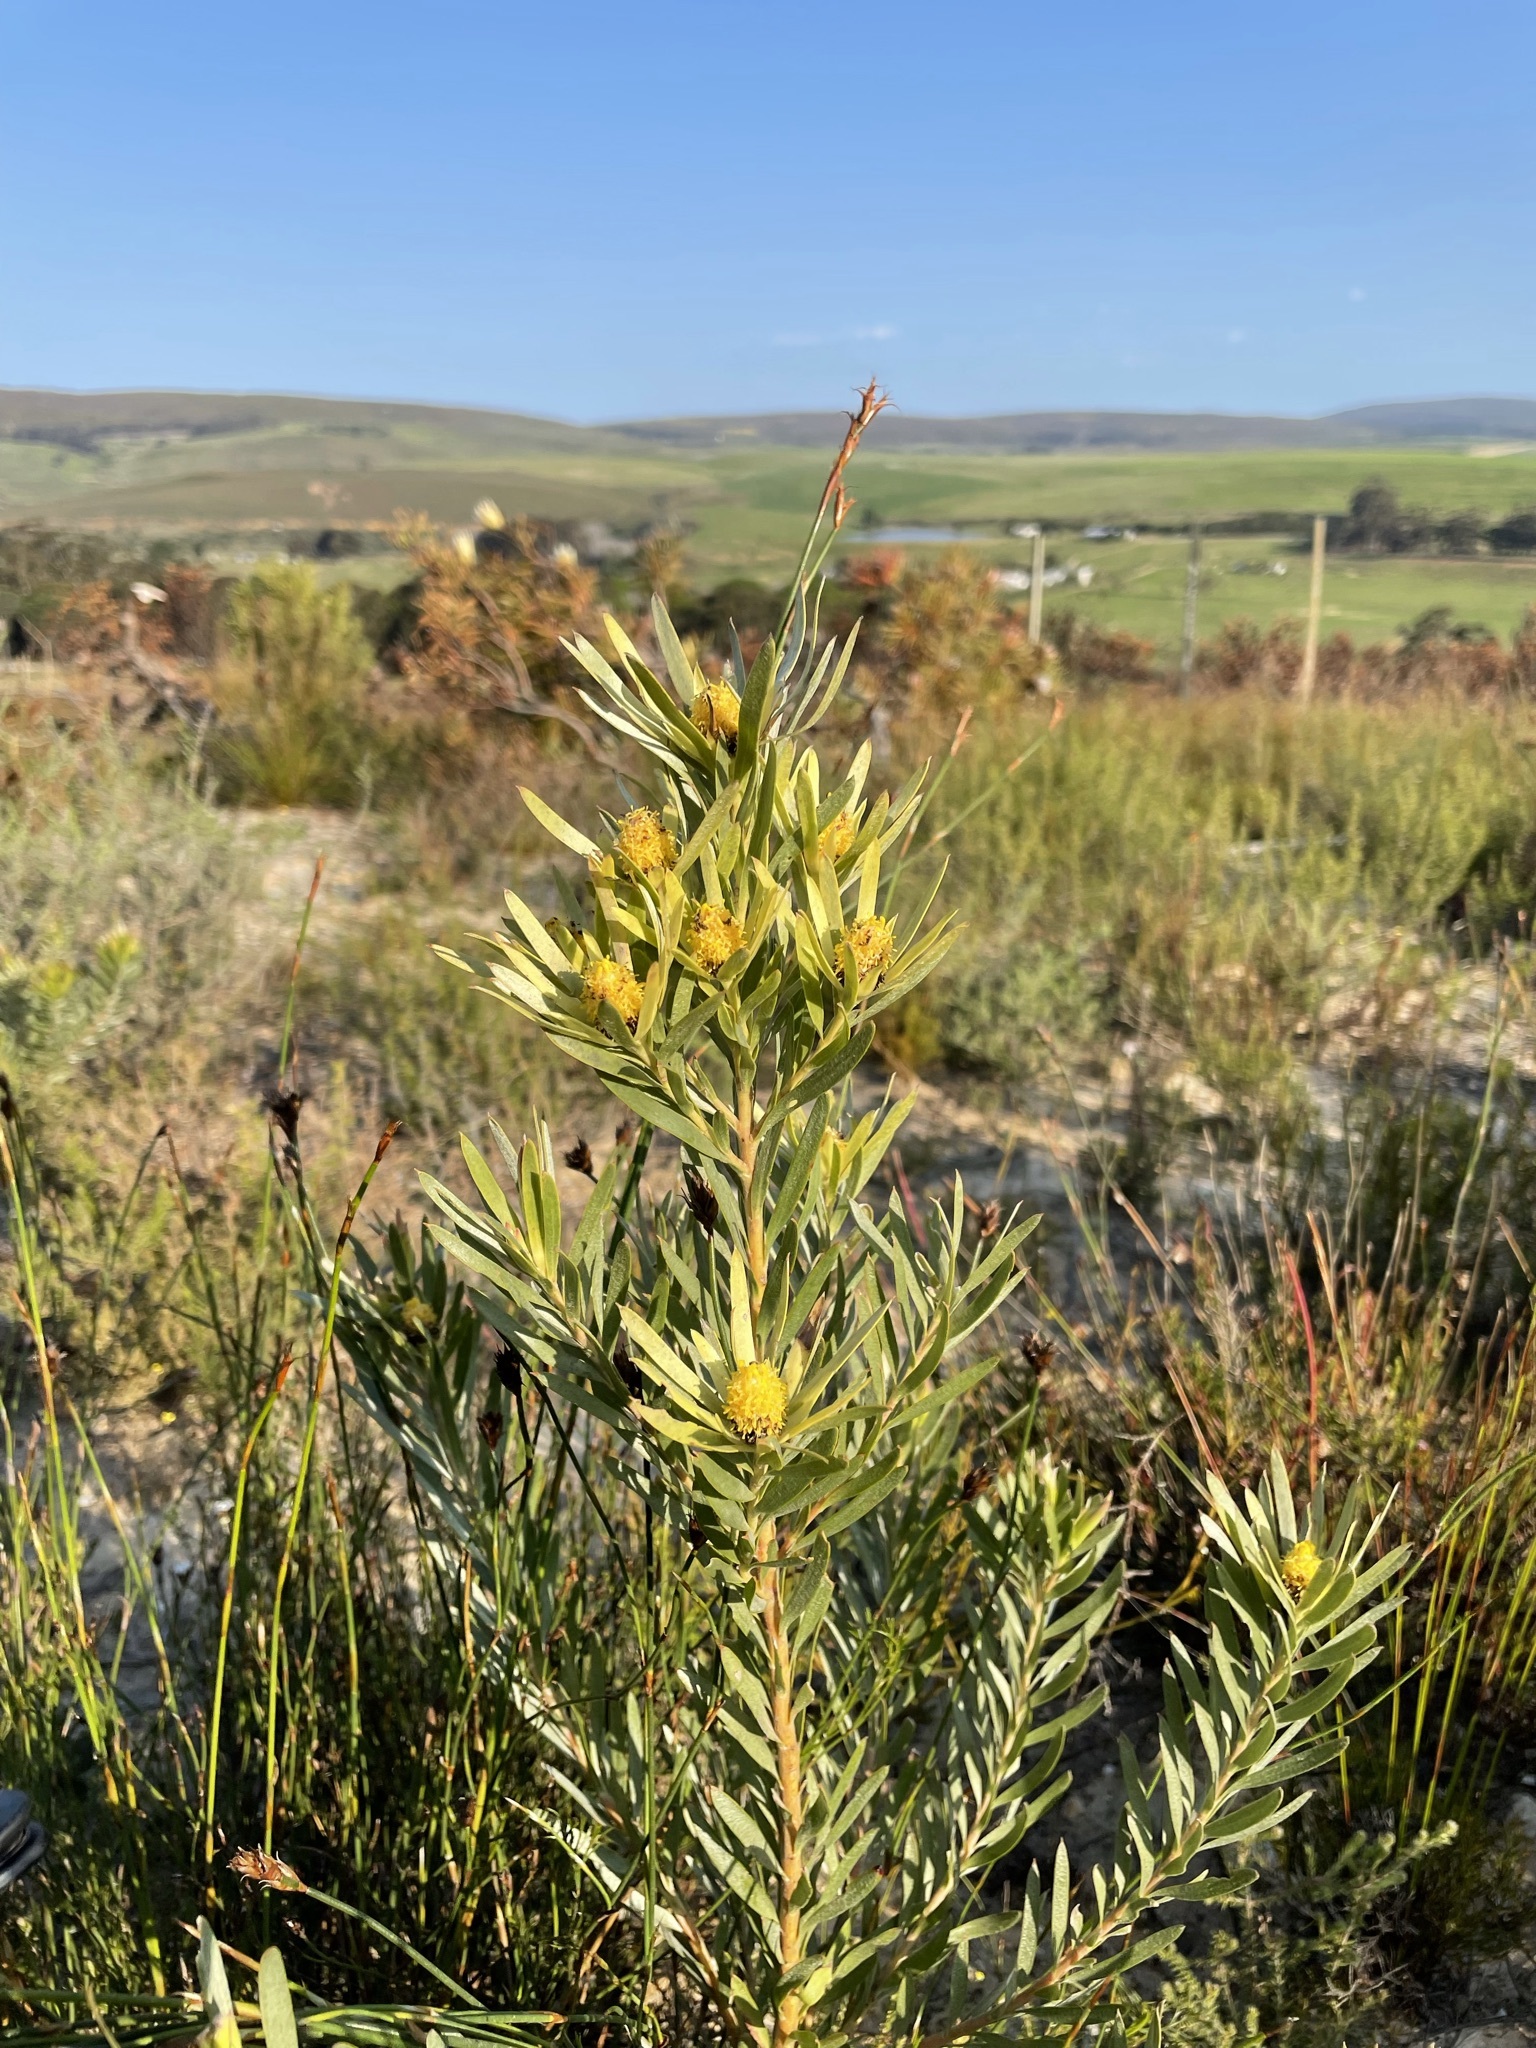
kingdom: Plantae
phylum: Tracheophyta
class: Magnoliopsida
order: Proteales
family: Proteaceae
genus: Leucadendron
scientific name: Leucadendron xanthoconus
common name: Sickle-leaf conebush
